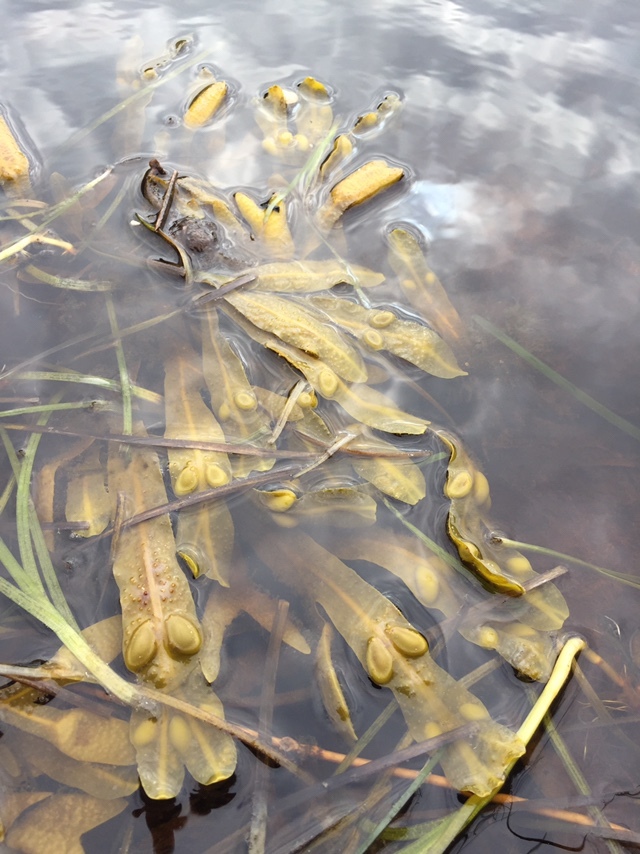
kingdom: Chromista
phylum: Ochrophyta
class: Phaeophyceae
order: Fucales
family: Fucaceae
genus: Fucus
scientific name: Fucus vesiculosus
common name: Bladder wrack
